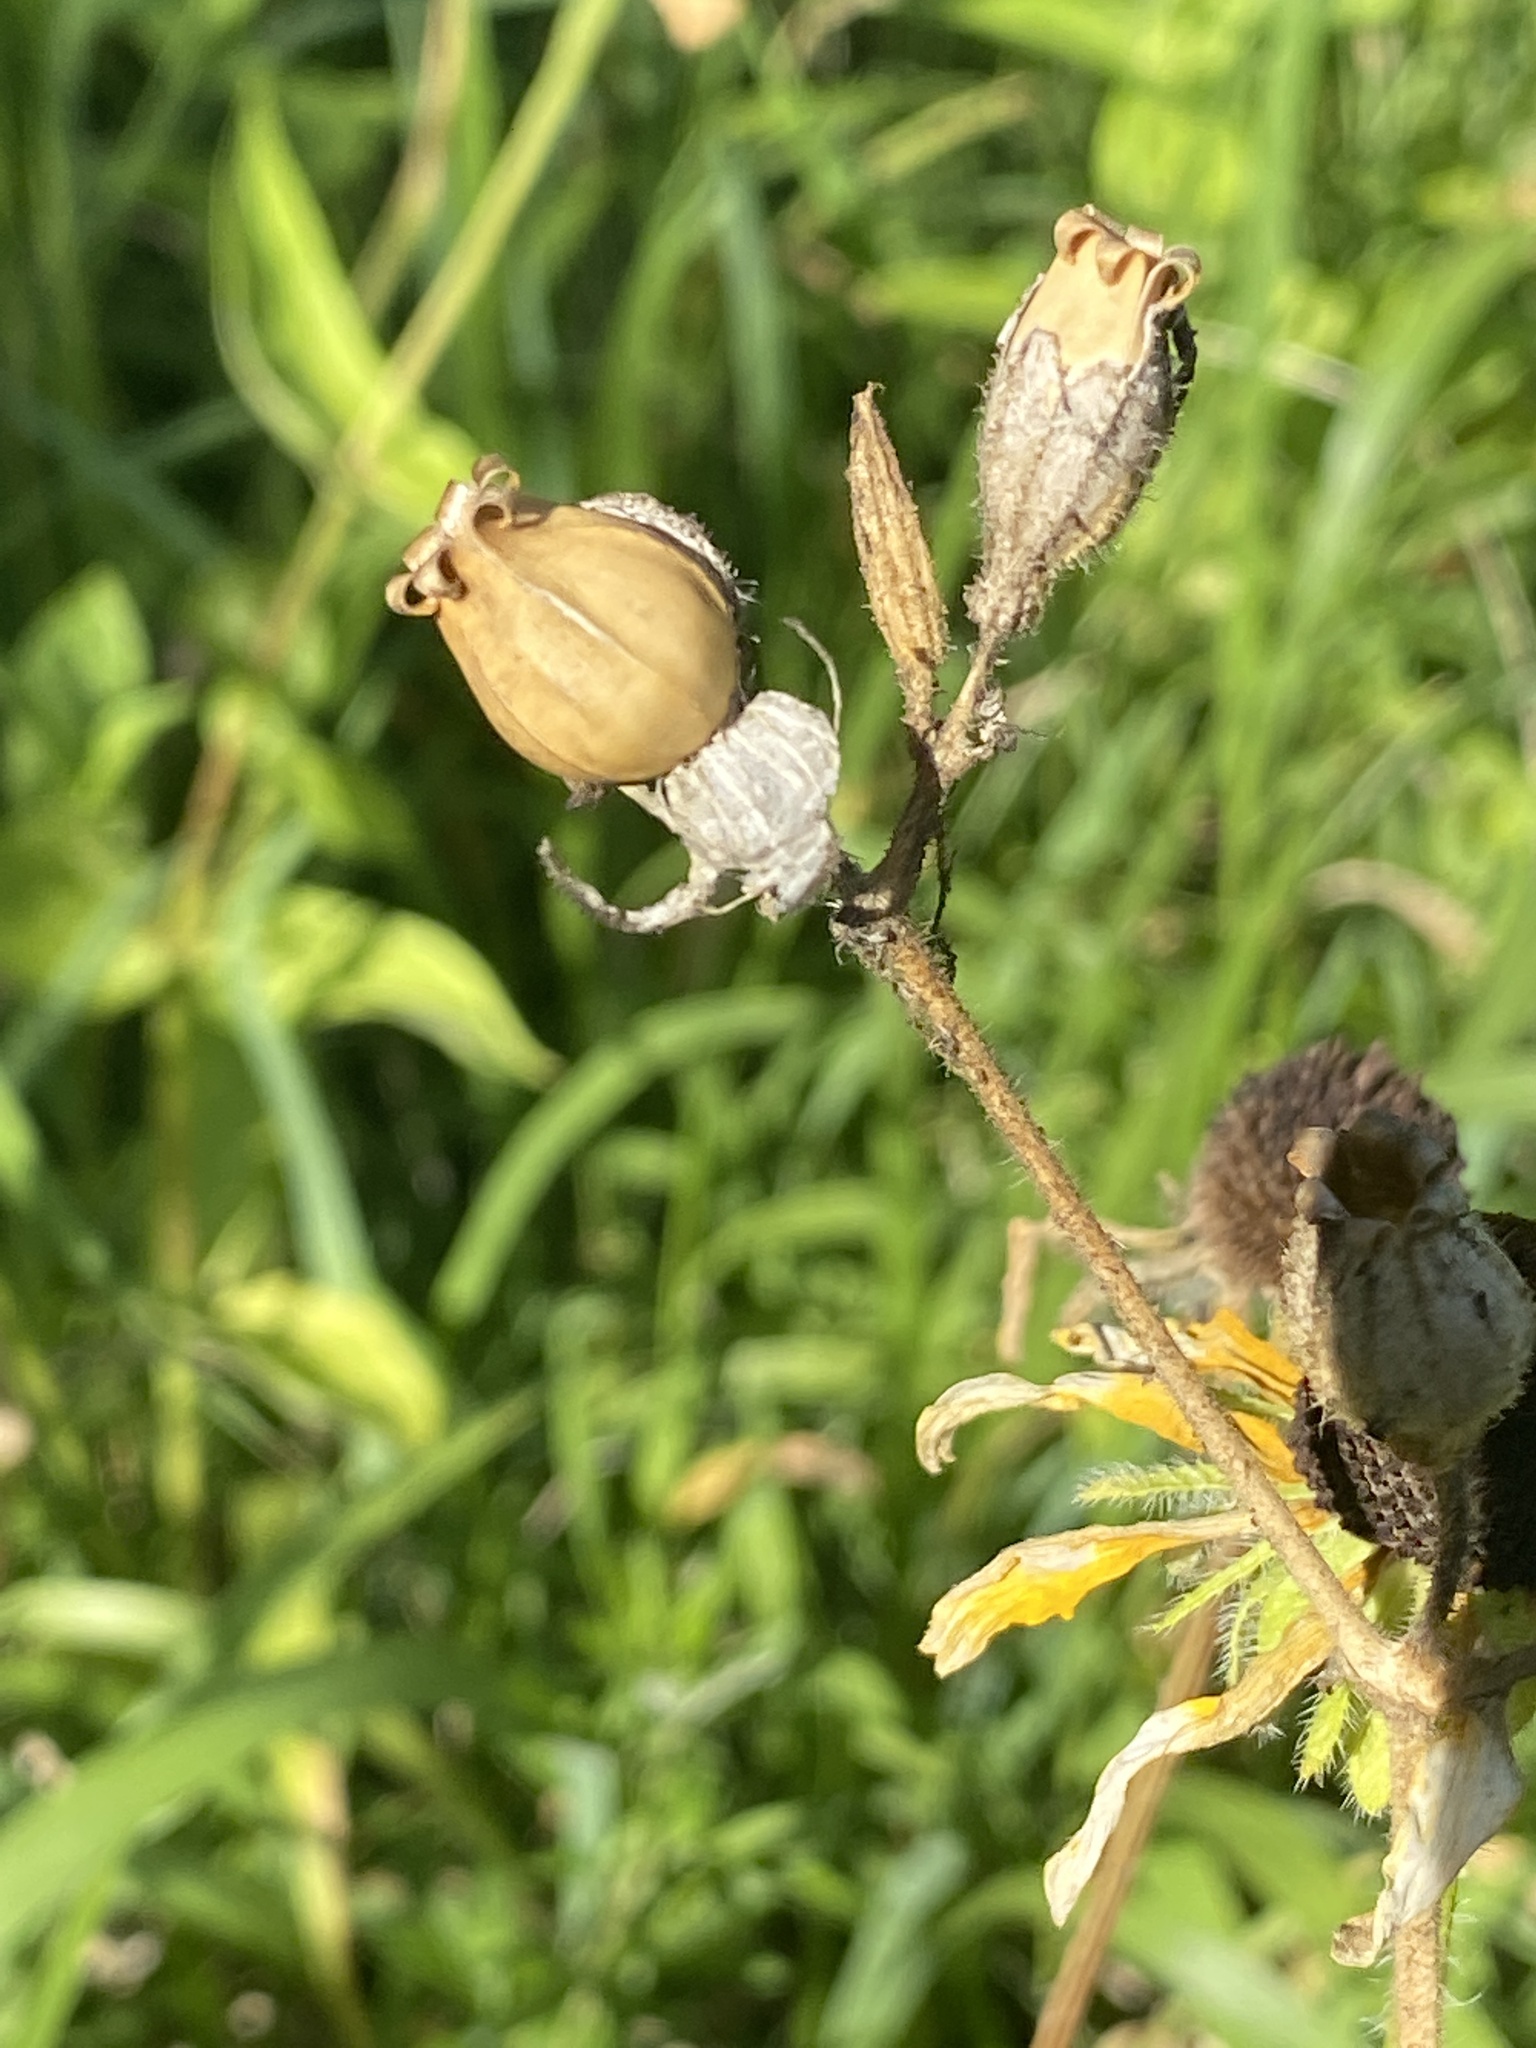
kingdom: Plantae
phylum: Tracheophyta
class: Magnoliopsida
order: Caryophyllales
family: Caryophyllaceae
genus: Silene
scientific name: Silene latifolia
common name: White campion
